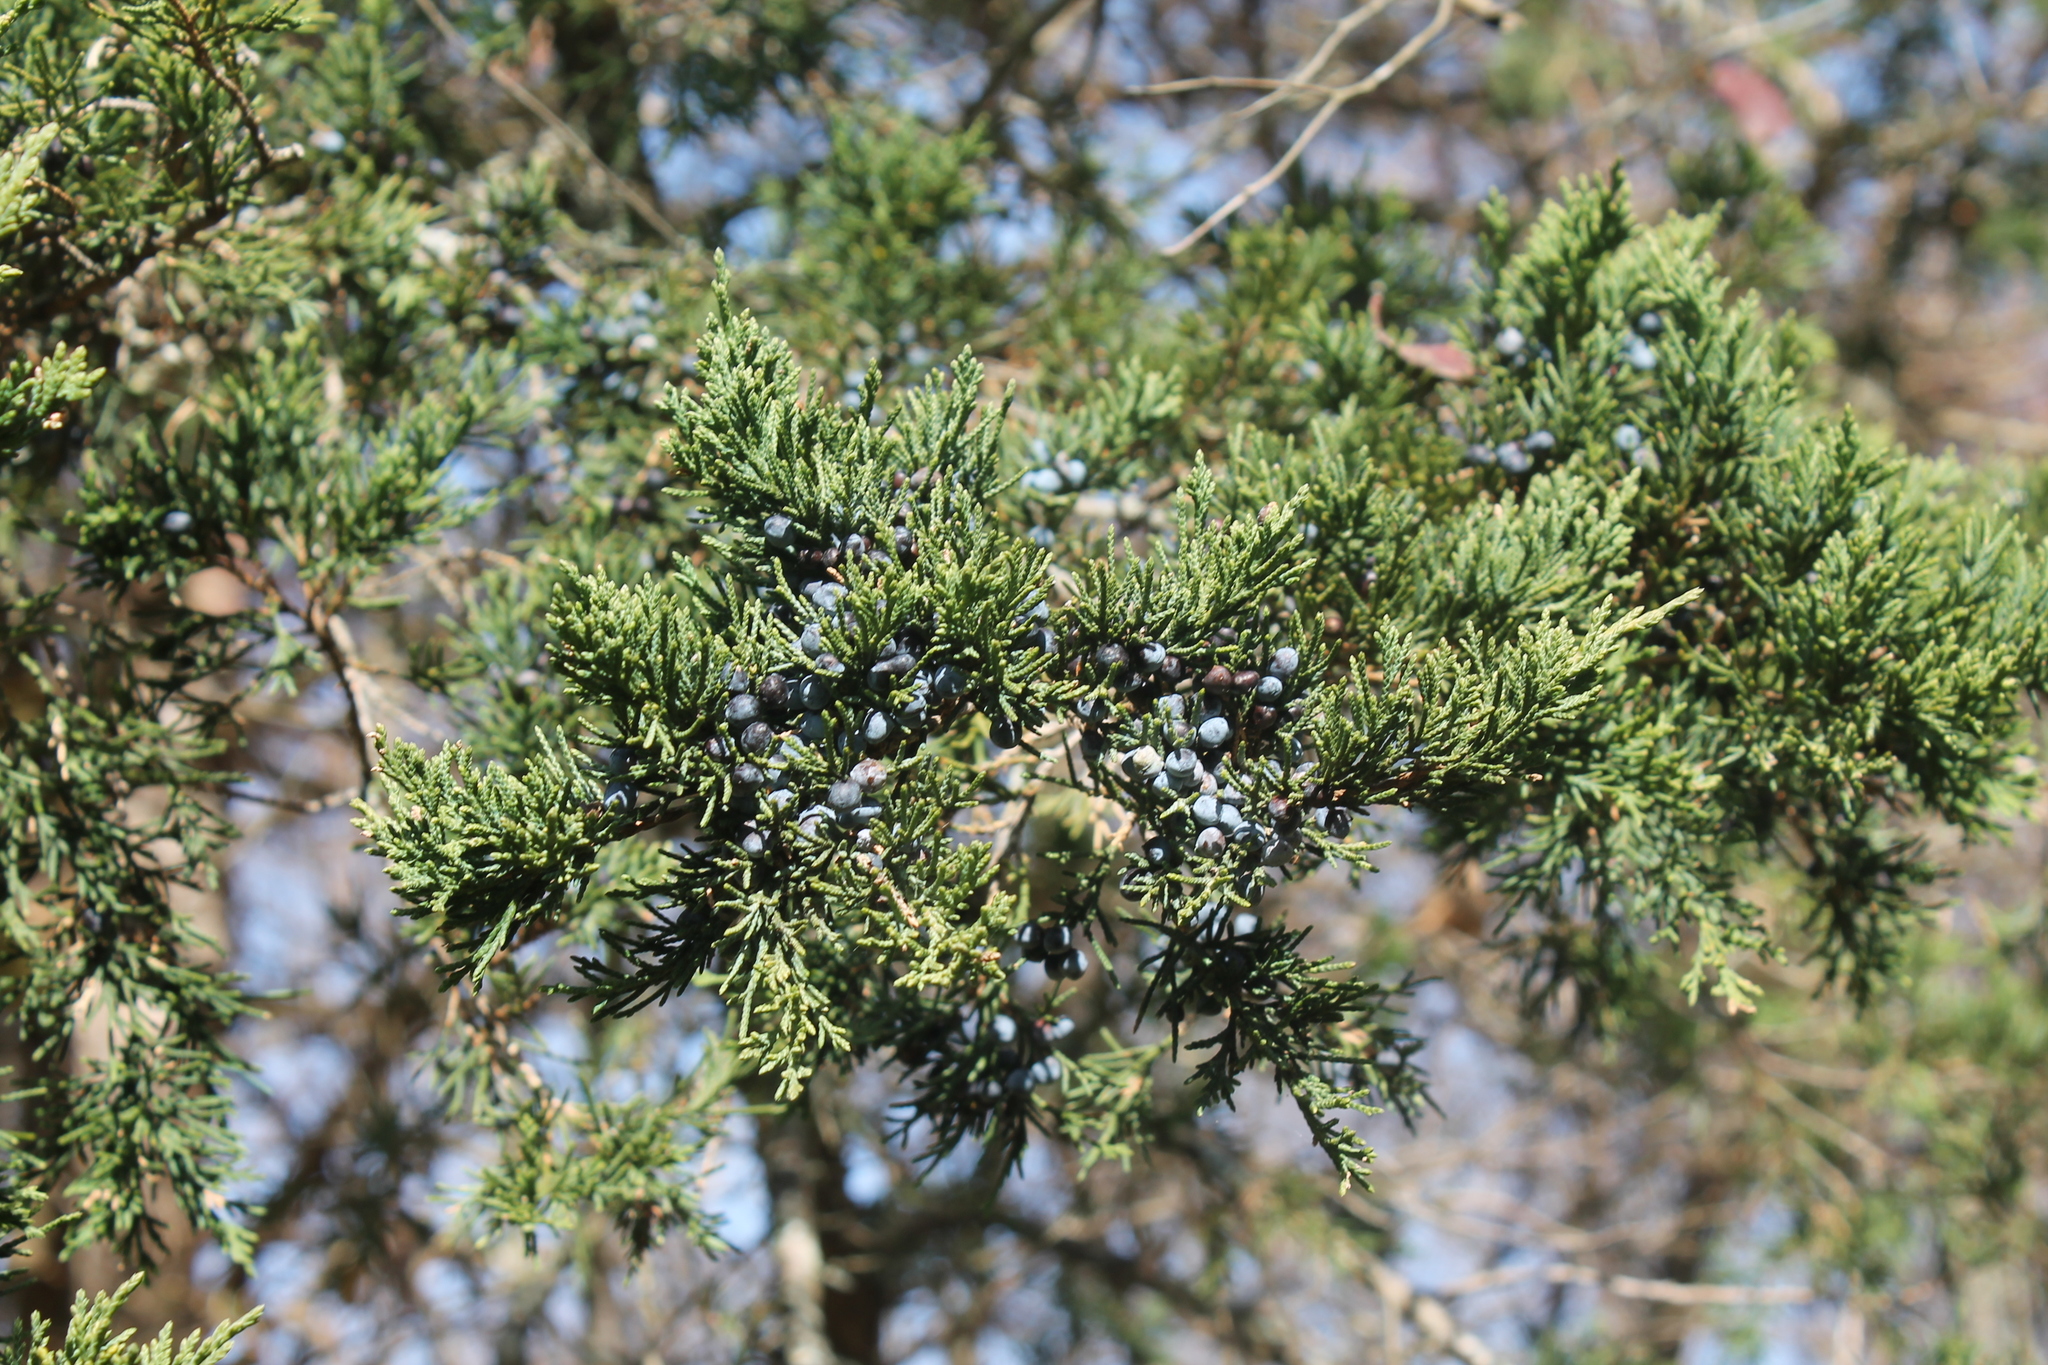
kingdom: Plantae
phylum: Tracheophyta
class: Pinopsida
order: Pinales
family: Cupressaceae
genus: Juniperus
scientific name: Juniperus virginiana
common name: Red juniper
